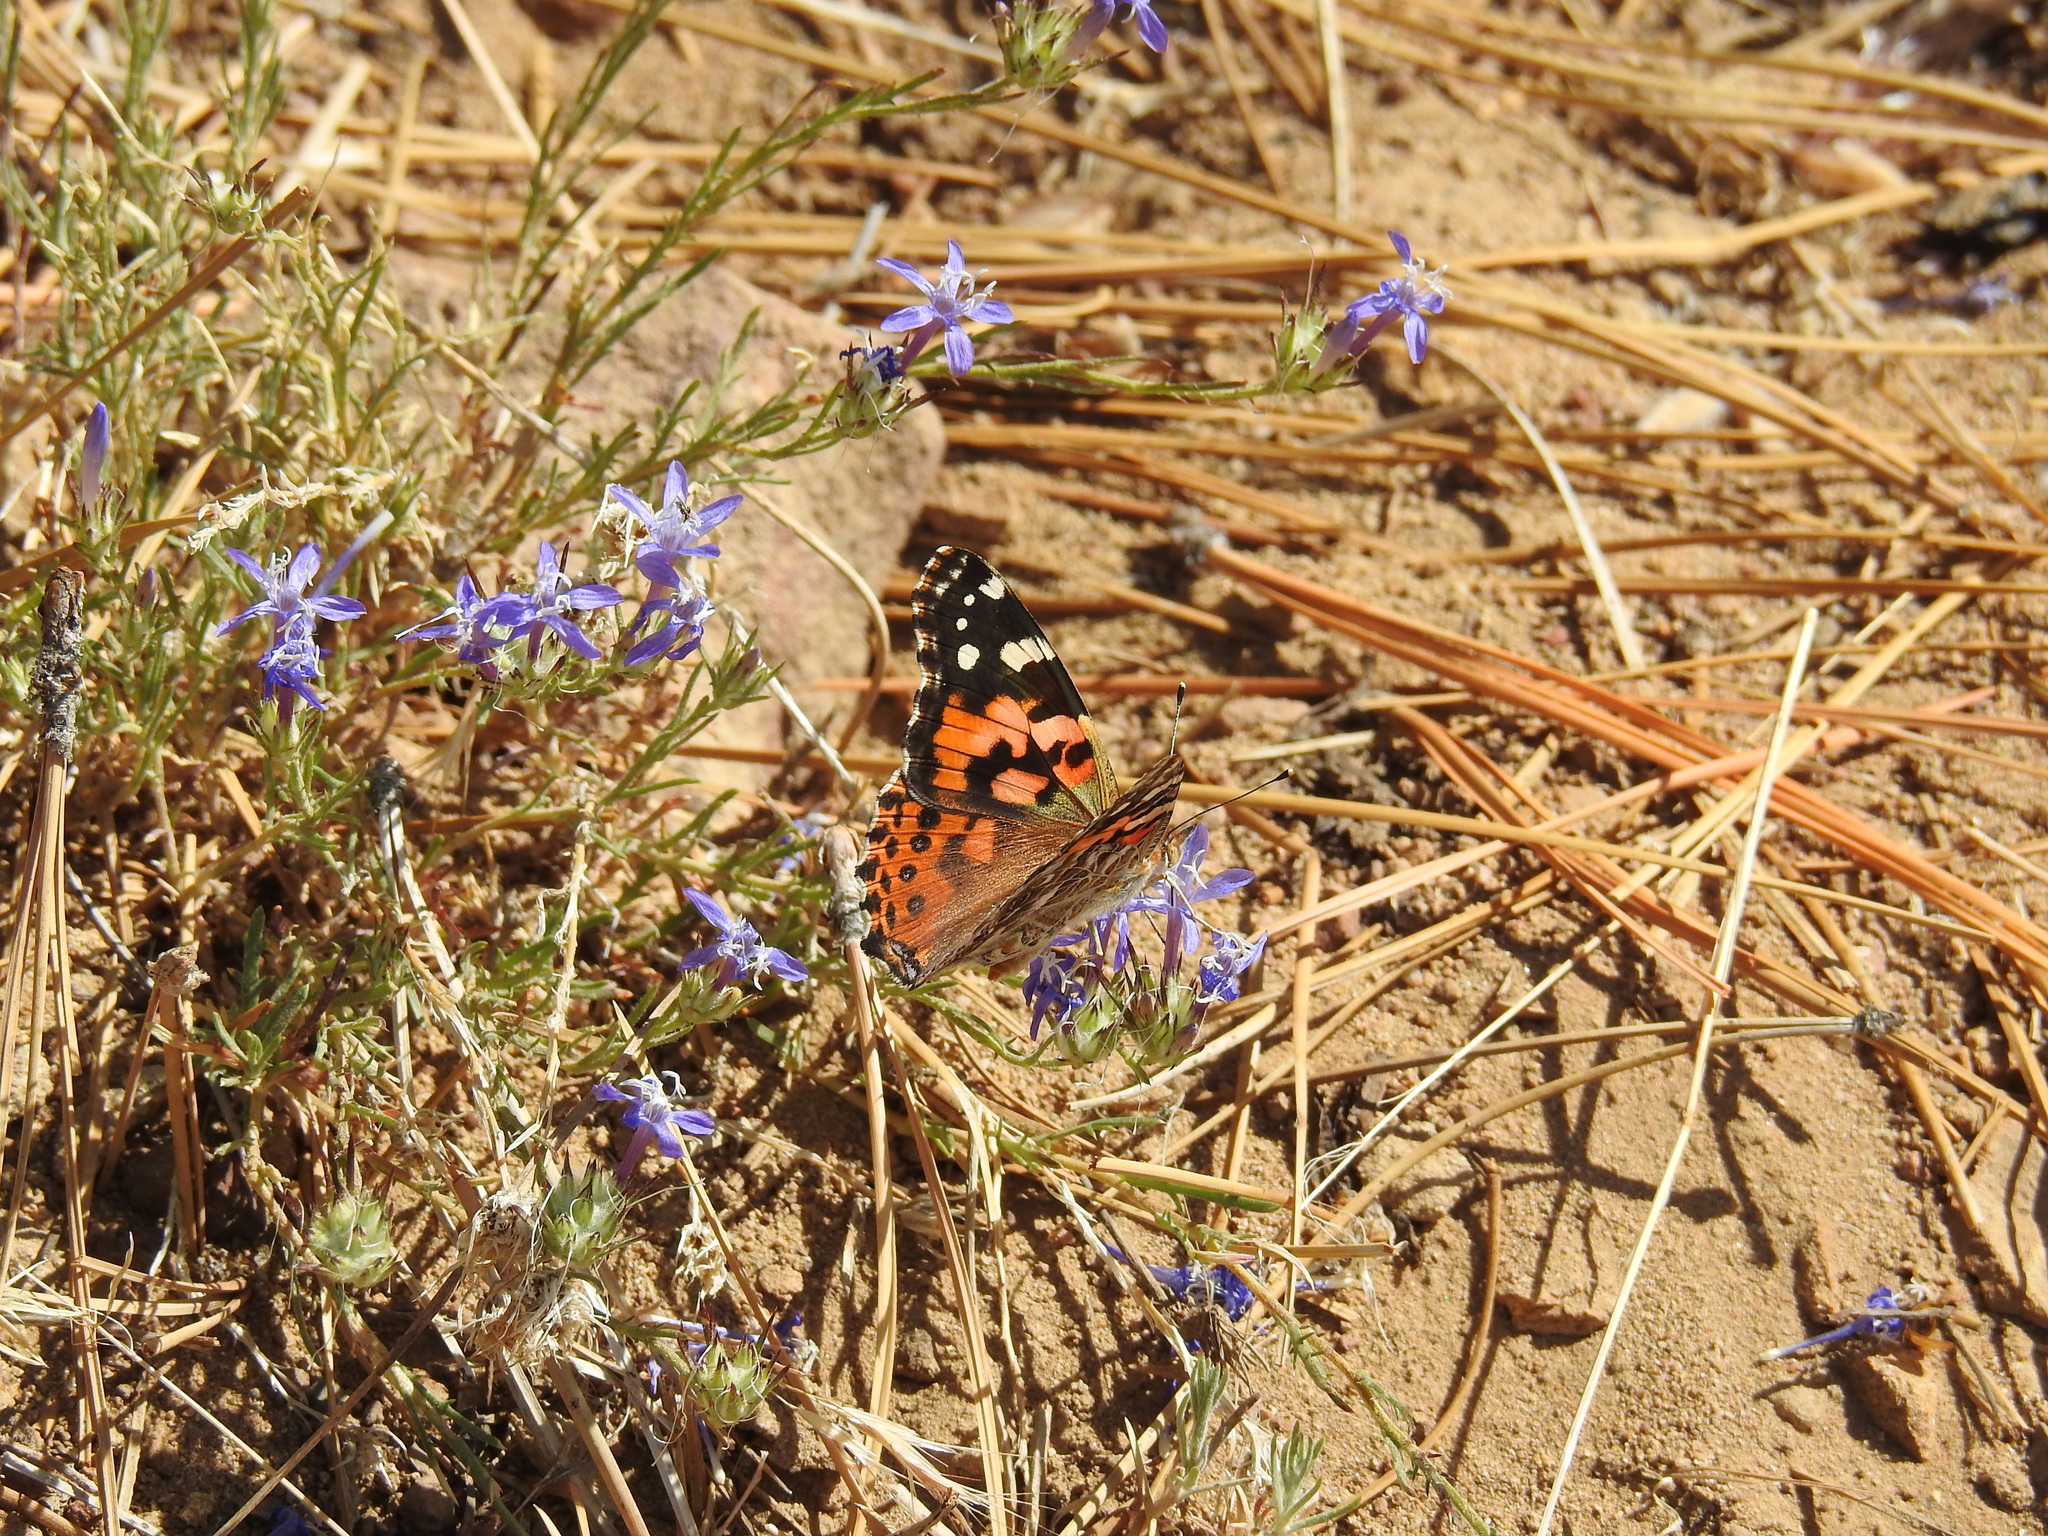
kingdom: Animalia
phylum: Arthropoda
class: Insecta
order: Lepidoptera
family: Nymphalidae
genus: Vanessa
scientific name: Vanessa cardui
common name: Painted lady
